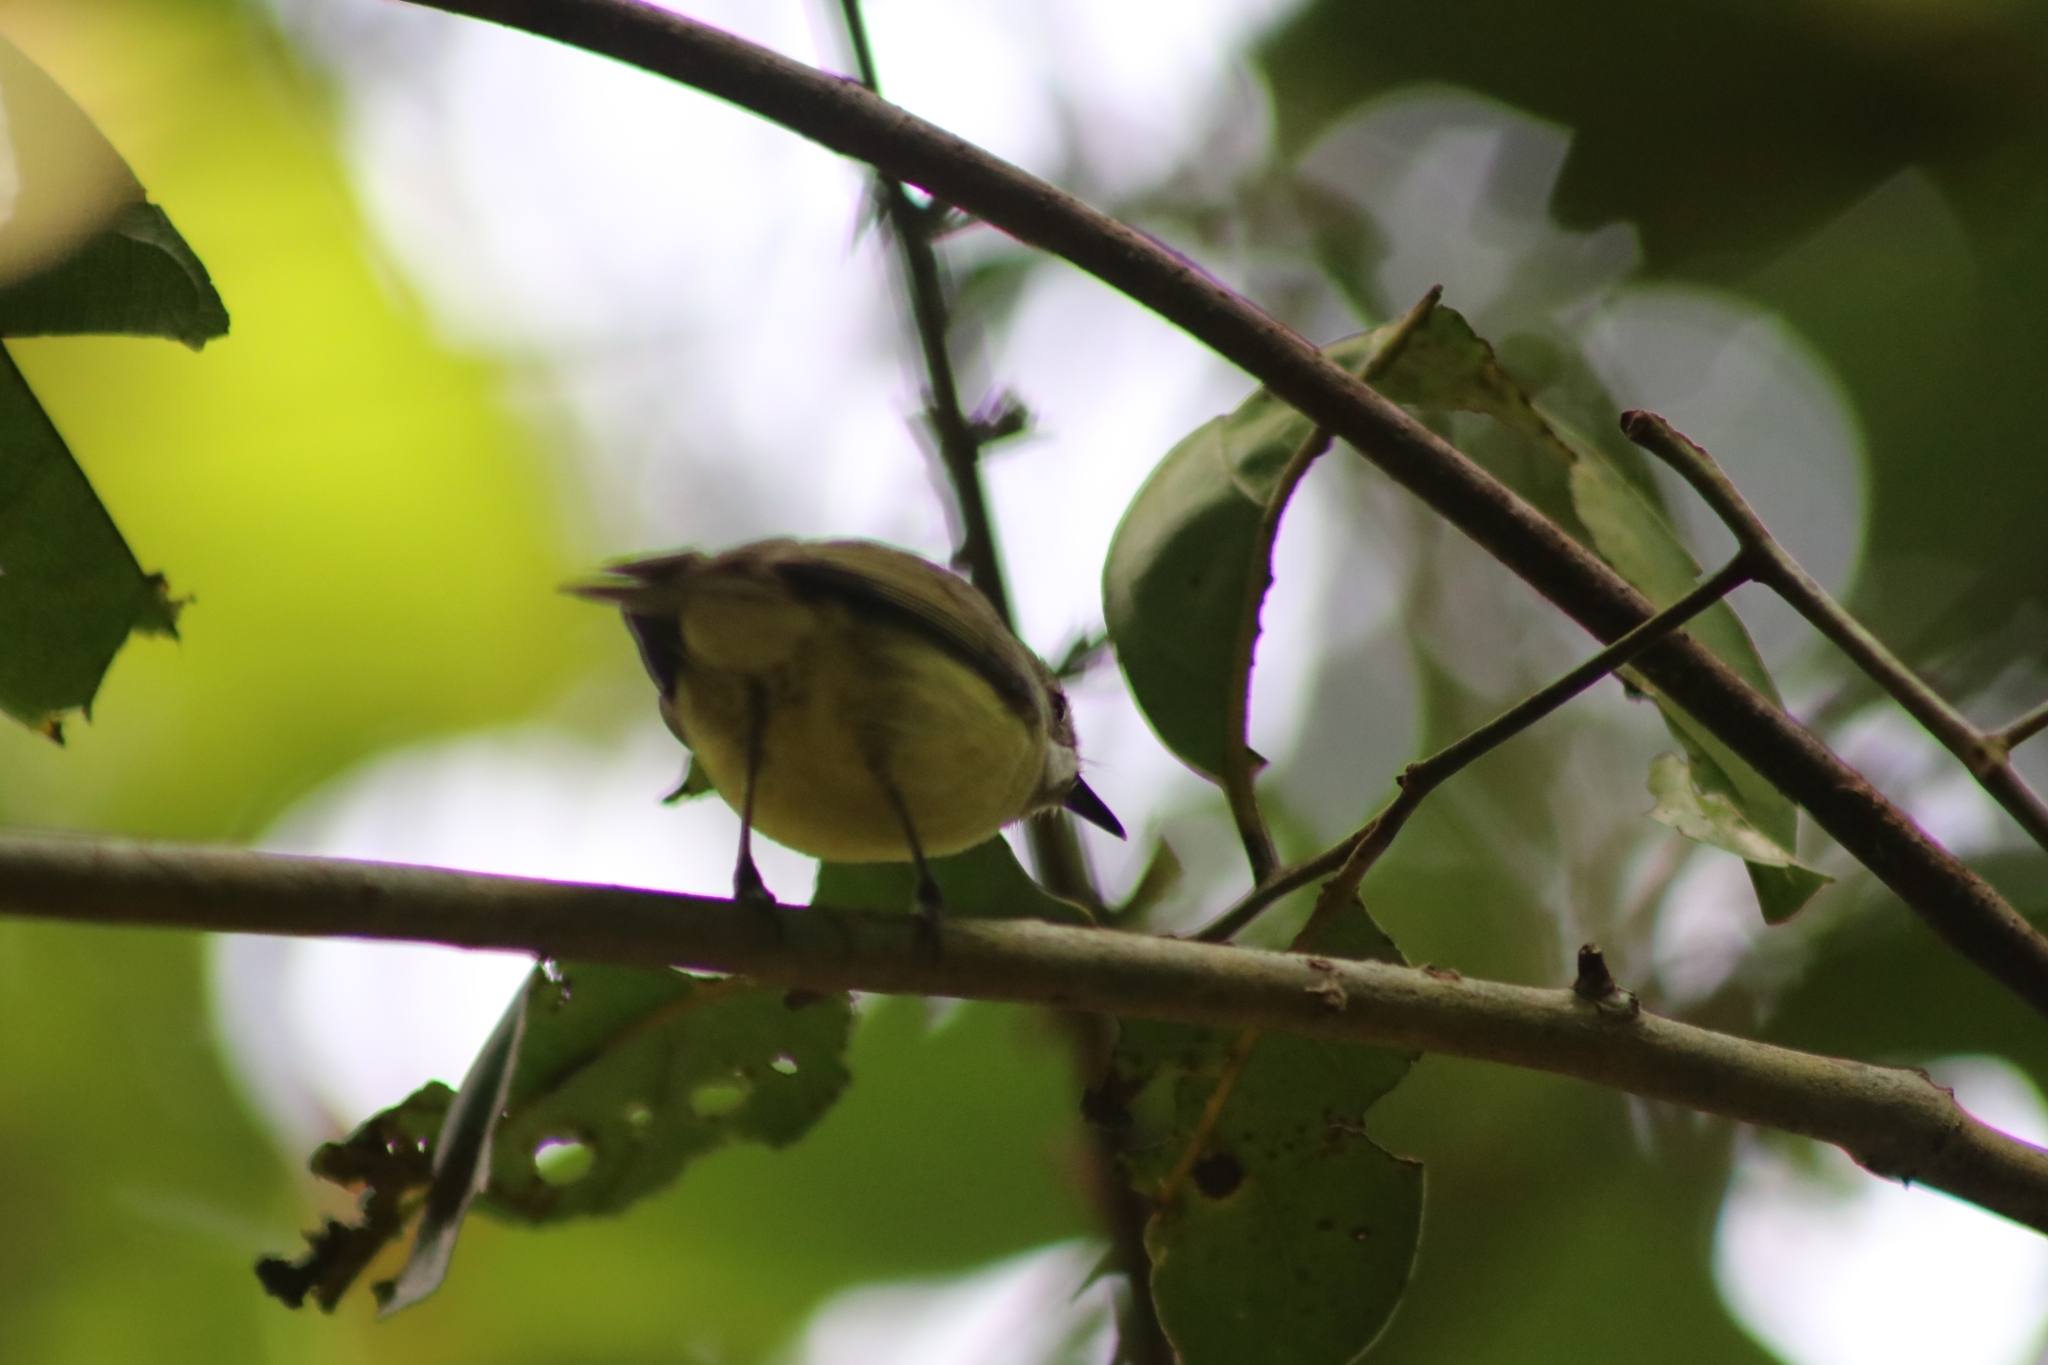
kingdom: Animalia
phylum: Chordata
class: Aves
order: Passeriformes
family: Acanthizidae
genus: Gerygone
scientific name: Gerygone palpebrosa
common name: Fairy gerygone
